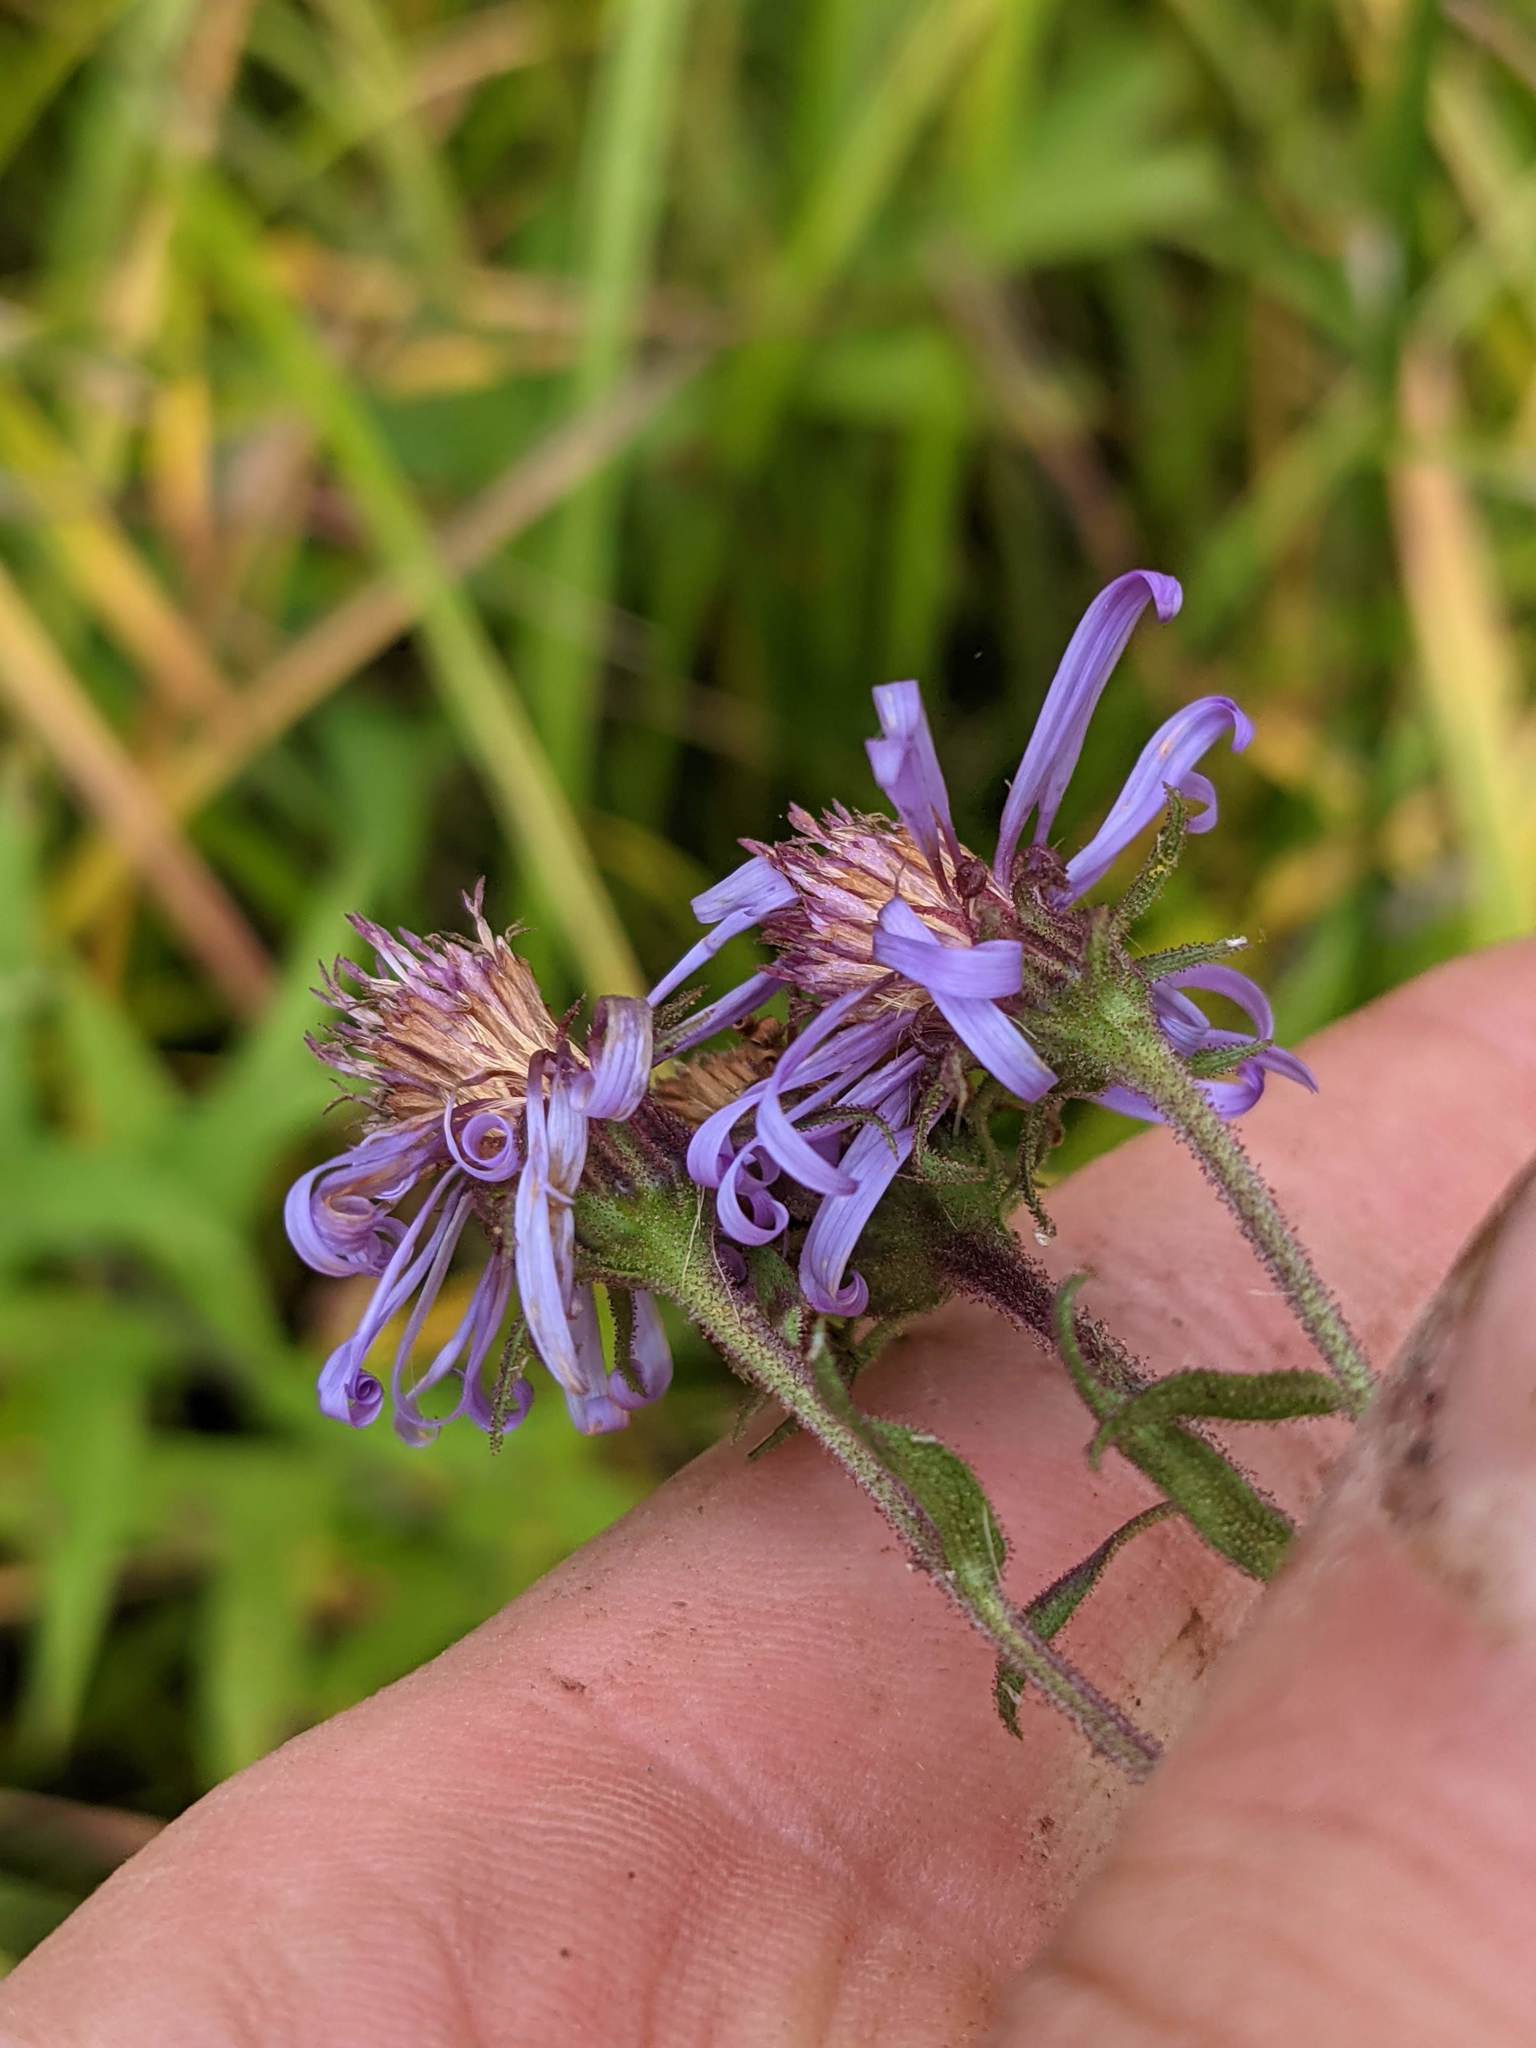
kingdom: Plantae
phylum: Tracheophyta
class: Magnoliopsida
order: Asterales
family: Asteraceae
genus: Canadanthus
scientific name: Canadanthus modestus
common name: Great northern aster
